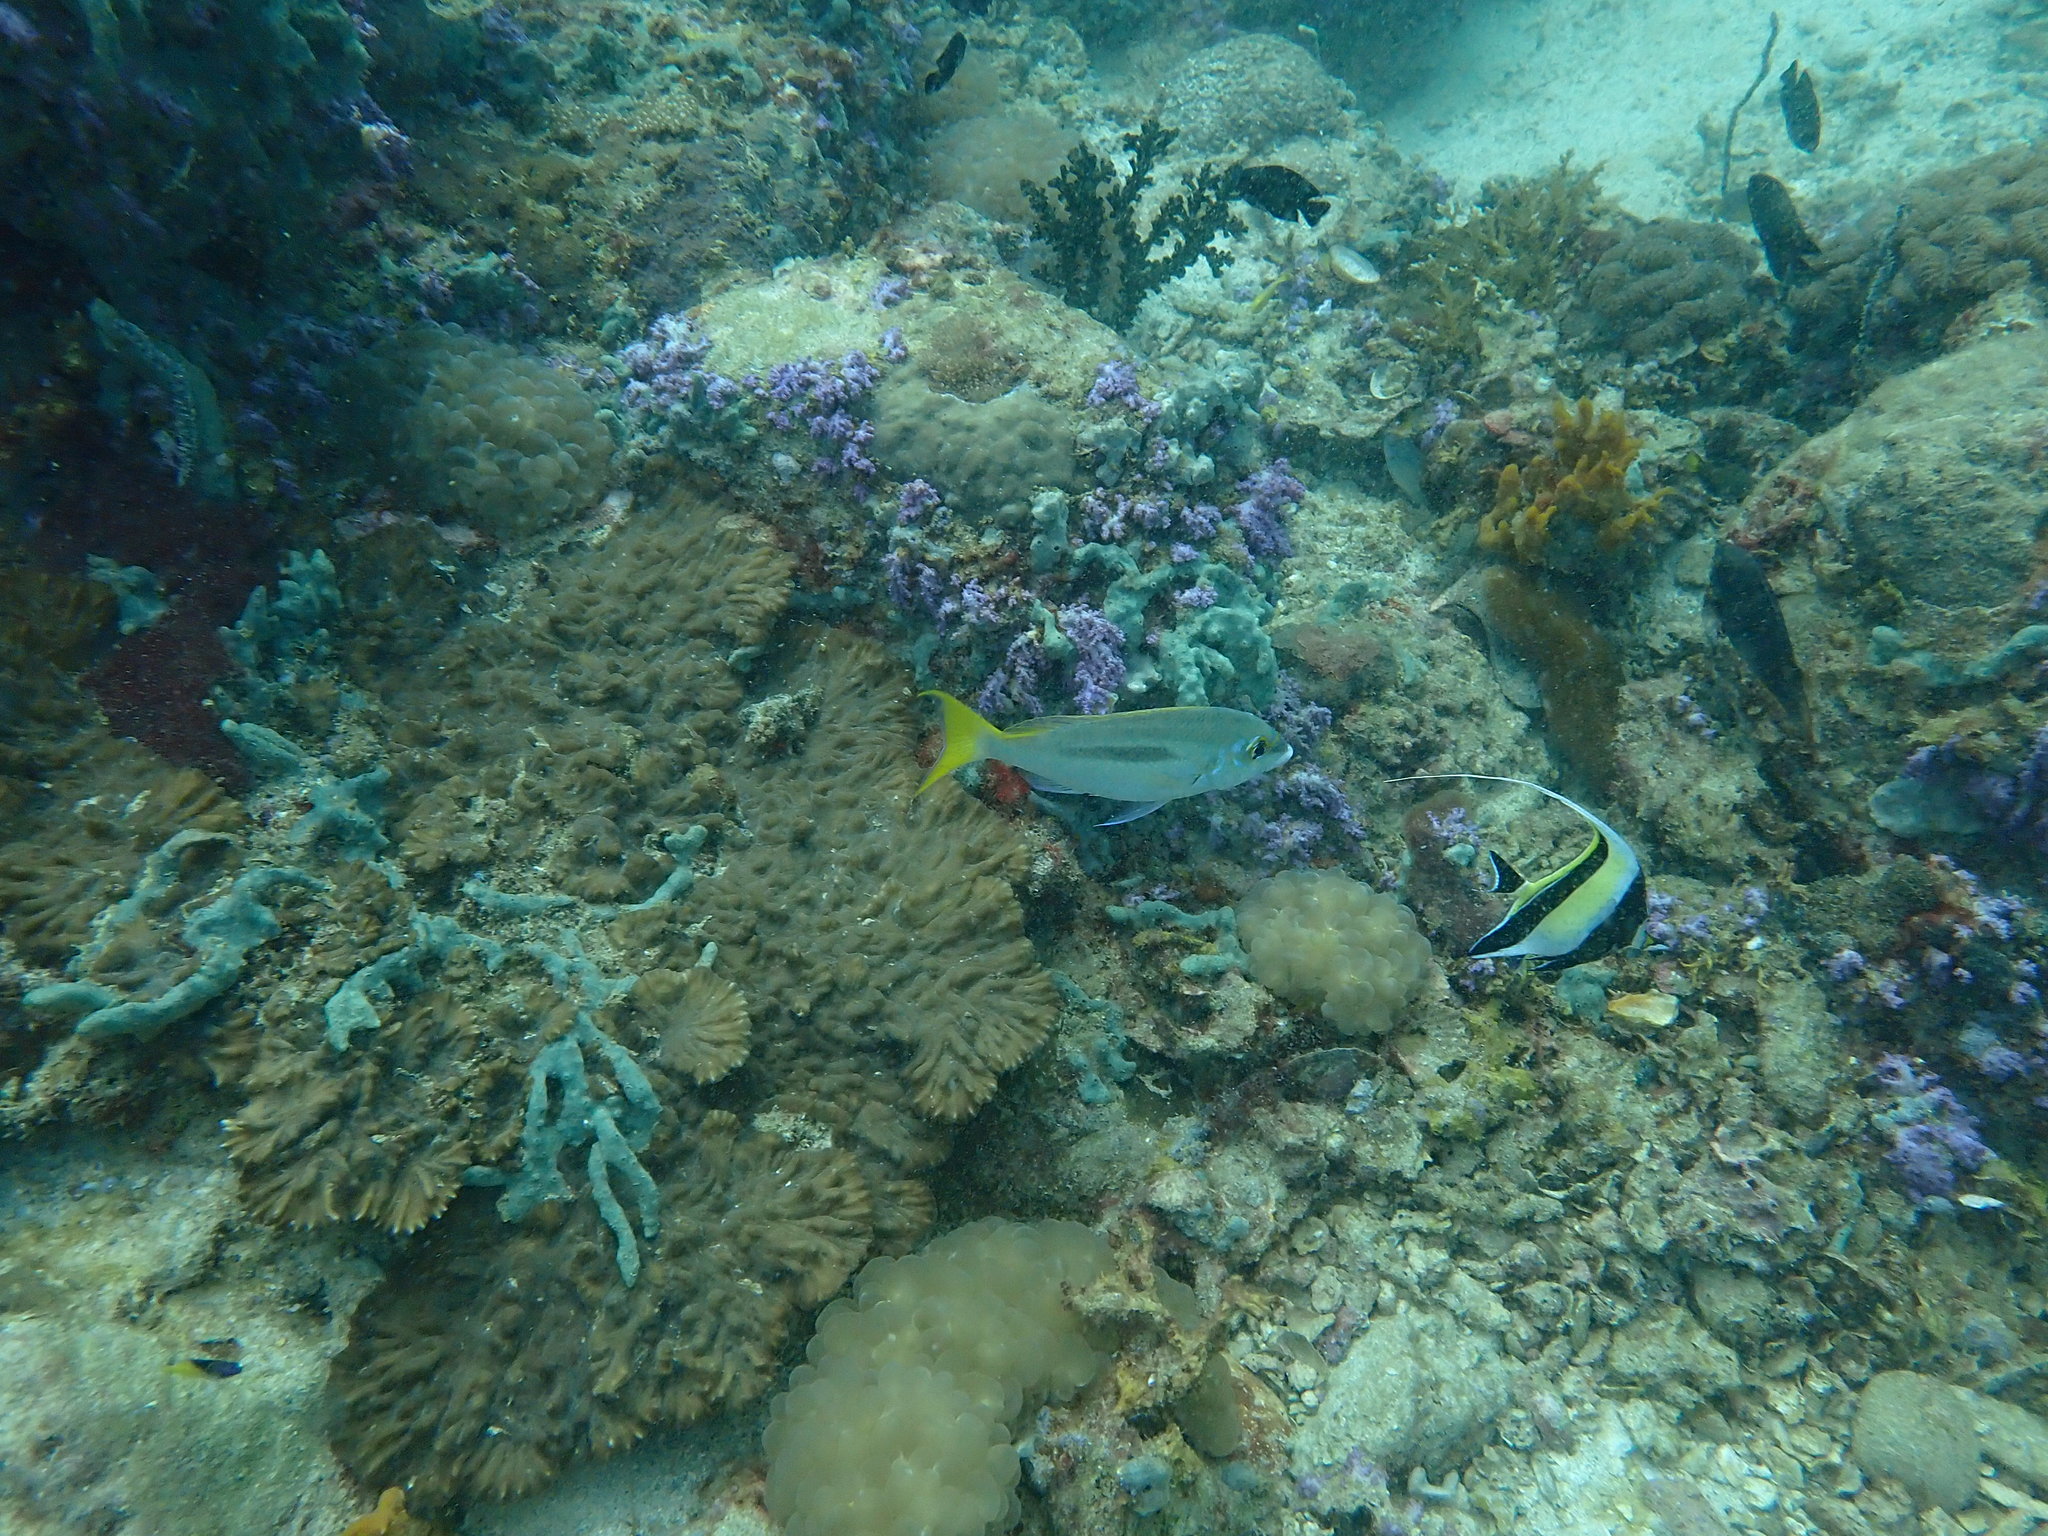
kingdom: Animalia
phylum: Chordata
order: Perciformes
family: Nemipteridae
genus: Scolopsis
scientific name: Scolopsis monogramma
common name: Monogrammed monocle bream
